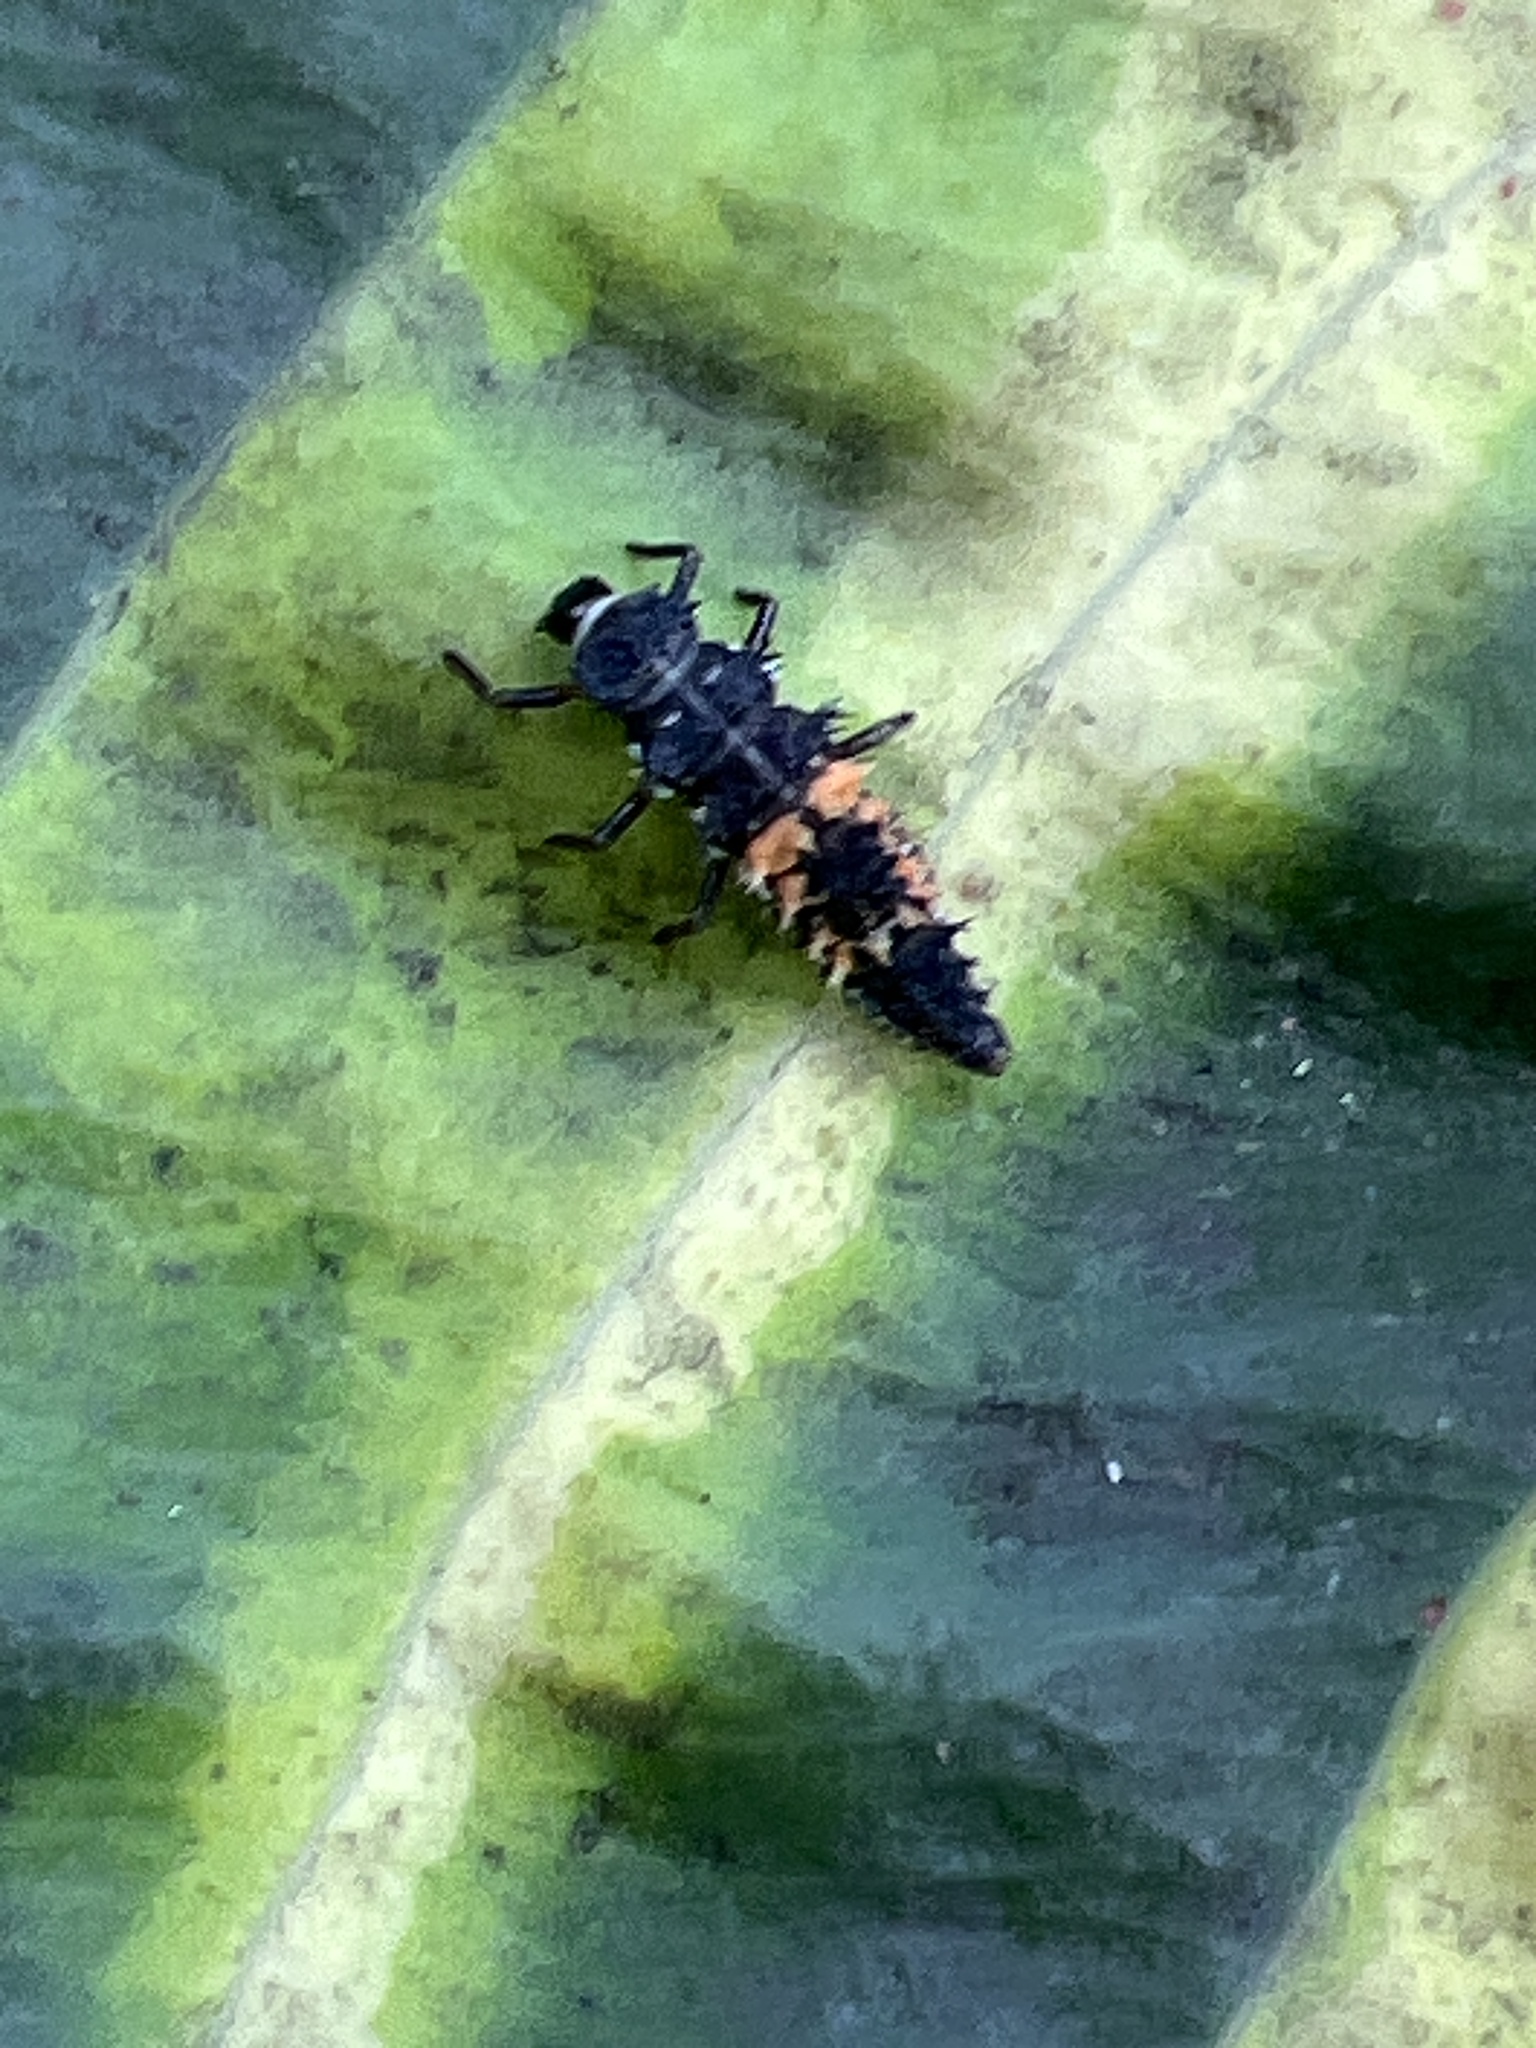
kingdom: Animalia
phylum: Arthropoda
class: Insecta
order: Coleoptera
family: Coccinellidae
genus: Harmonia
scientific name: Harmonia axyridis
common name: Harlequin ladybird
